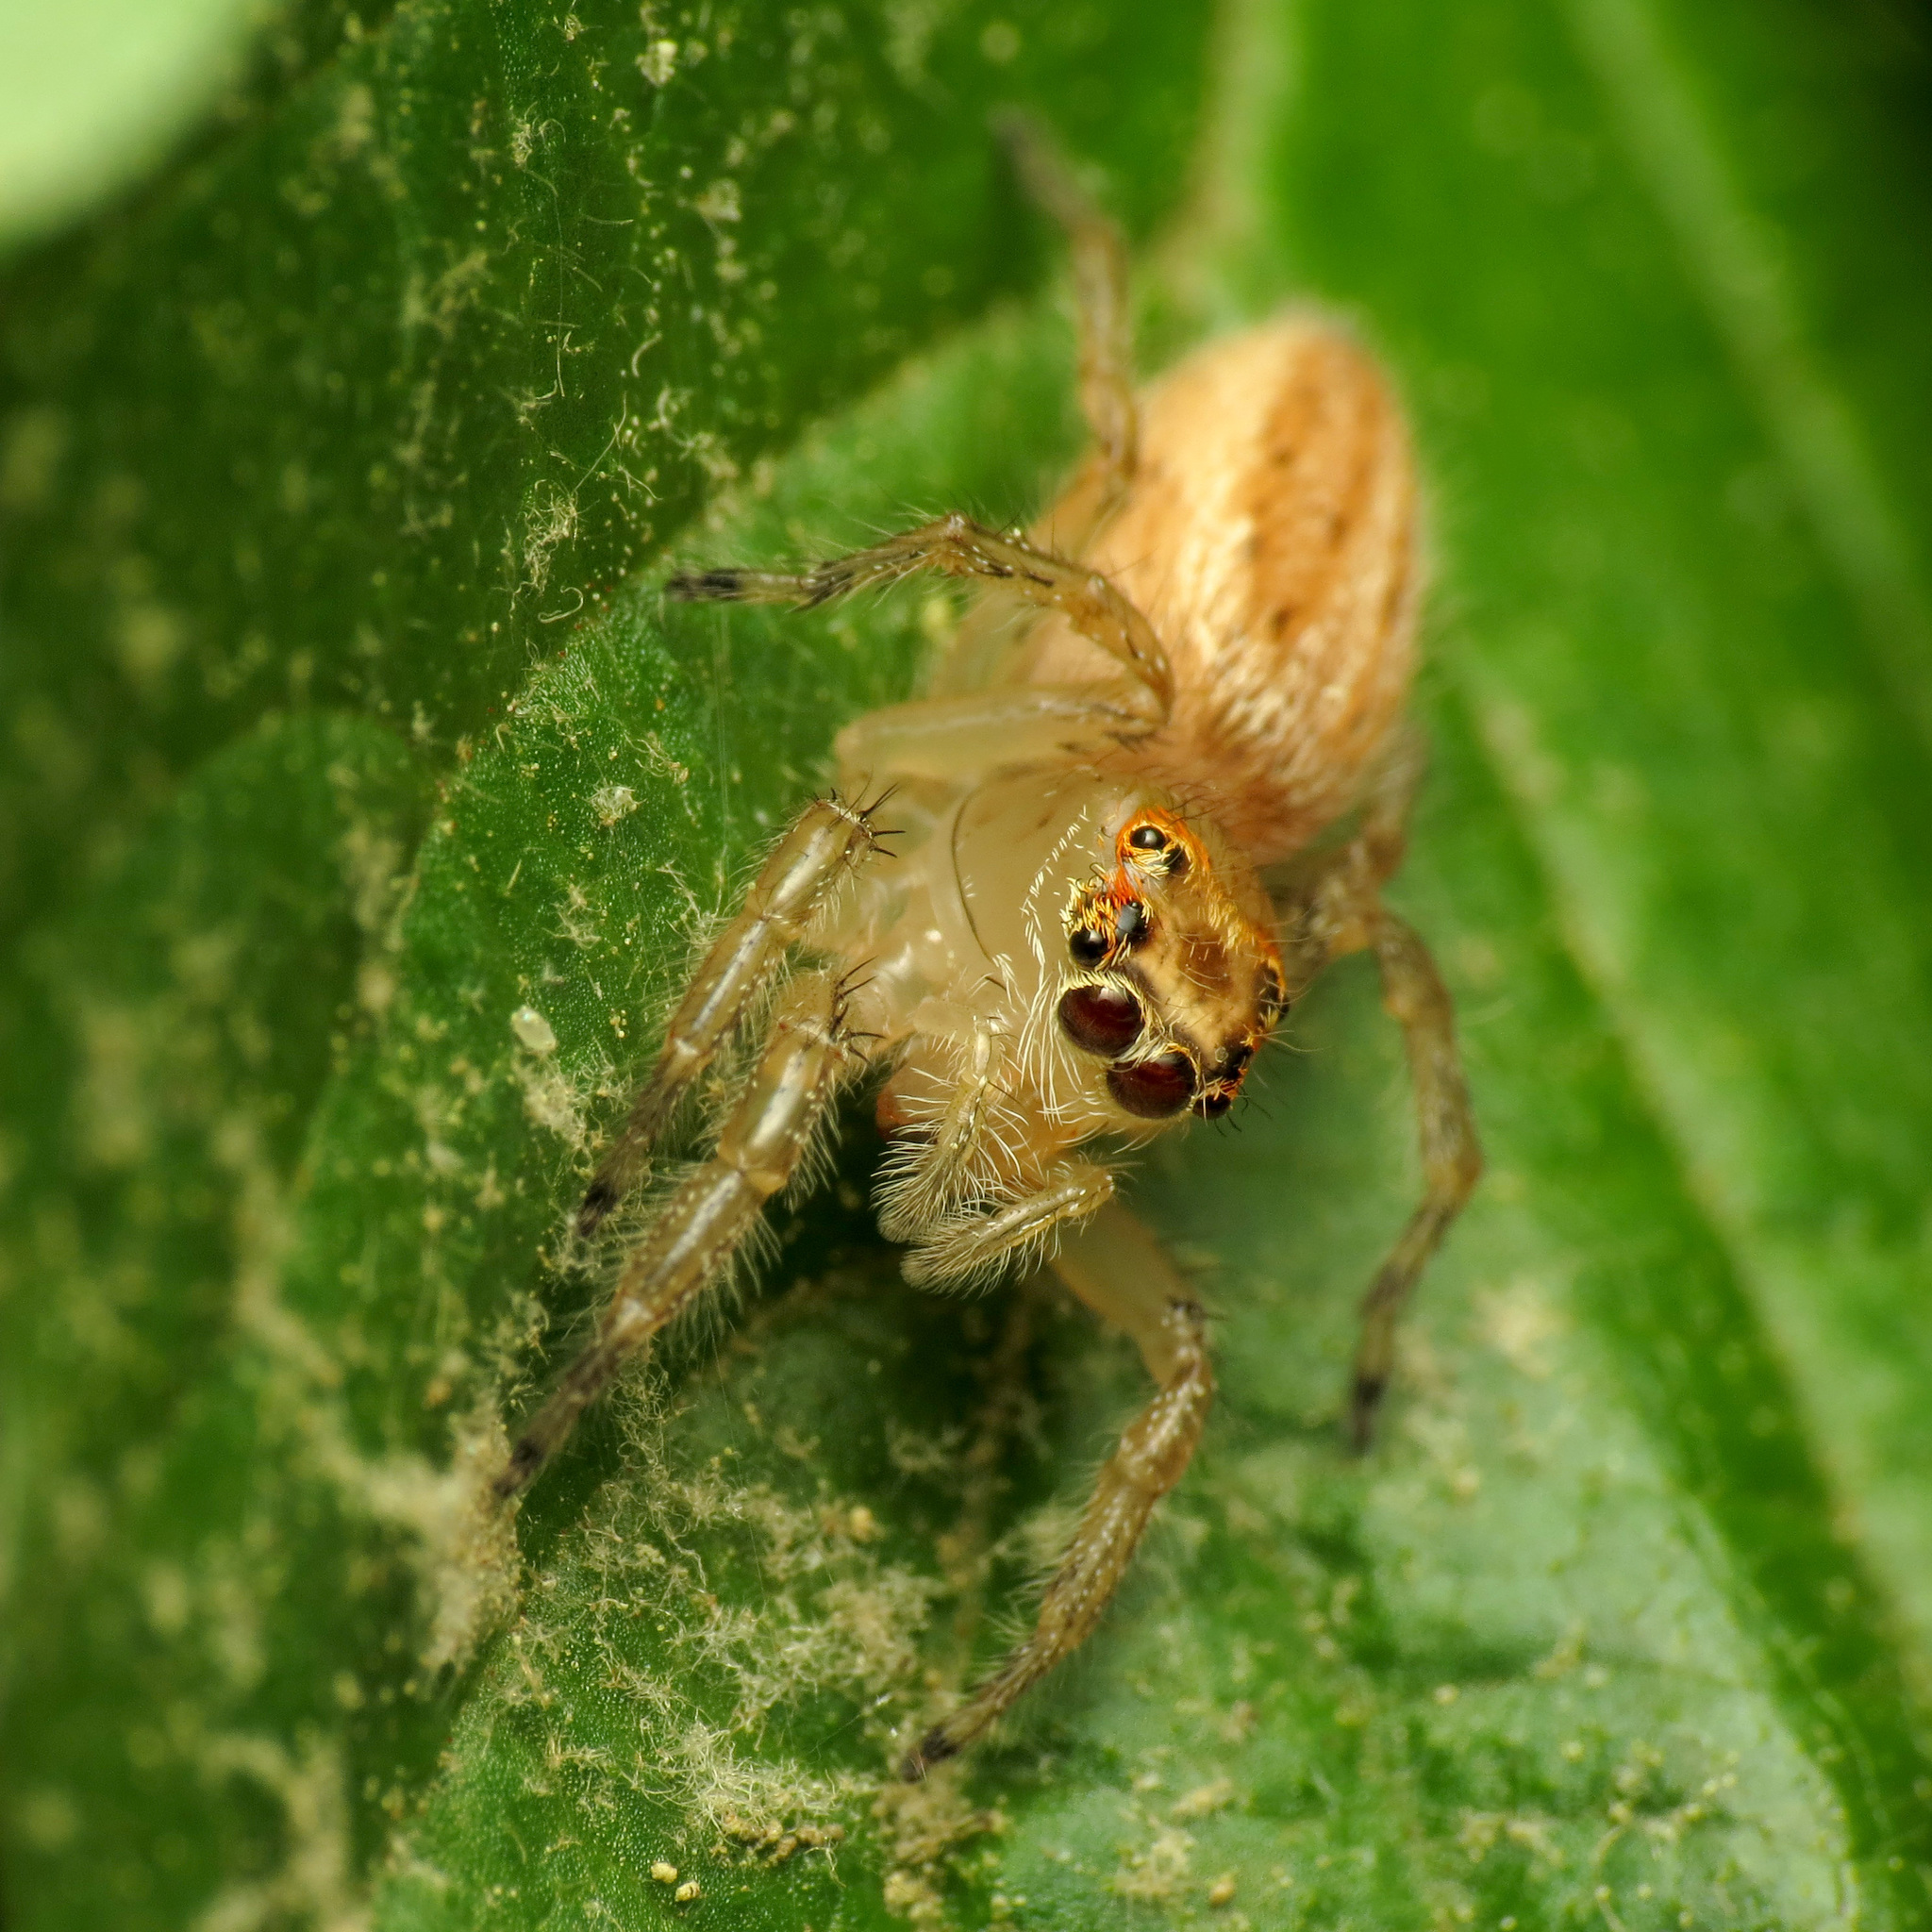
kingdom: Animalia
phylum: Arthropoda
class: Arachnida
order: Araneae
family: Salticidae
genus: Colonus
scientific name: Colonus sylvanus
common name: Jumping spiders
